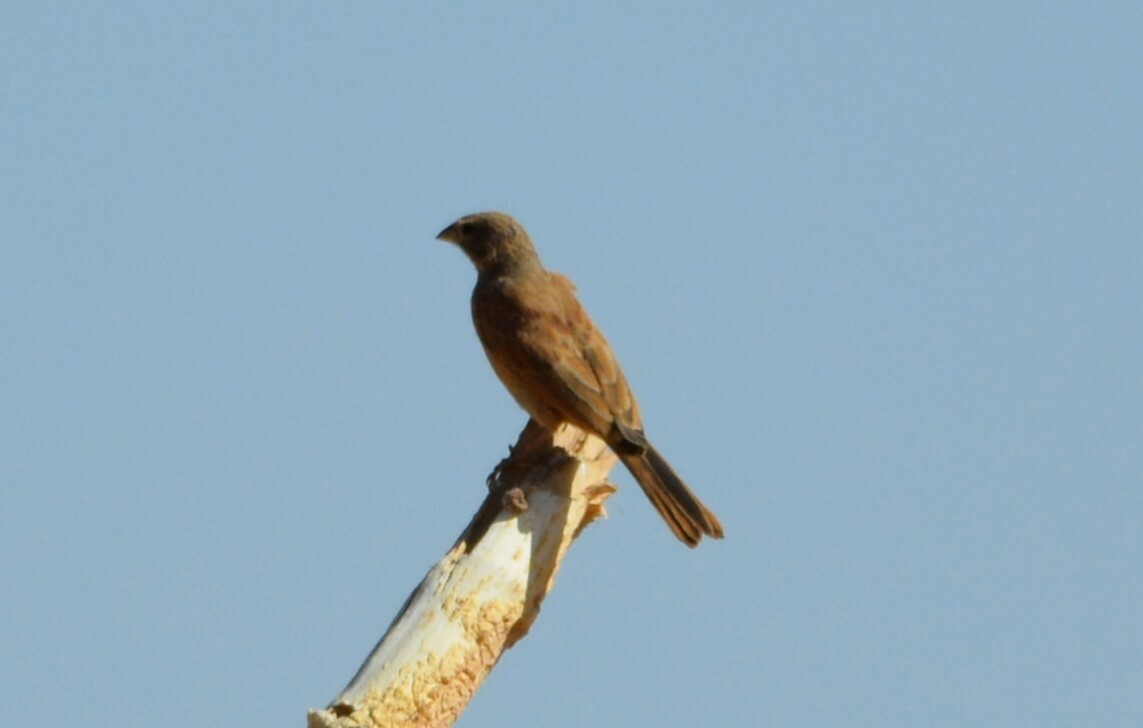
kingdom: Animalia
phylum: Chordata
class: Aves
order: Passeriformes
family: Emberizidae
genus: Emberiza
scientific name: Emberiza sahari
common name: House bunting
